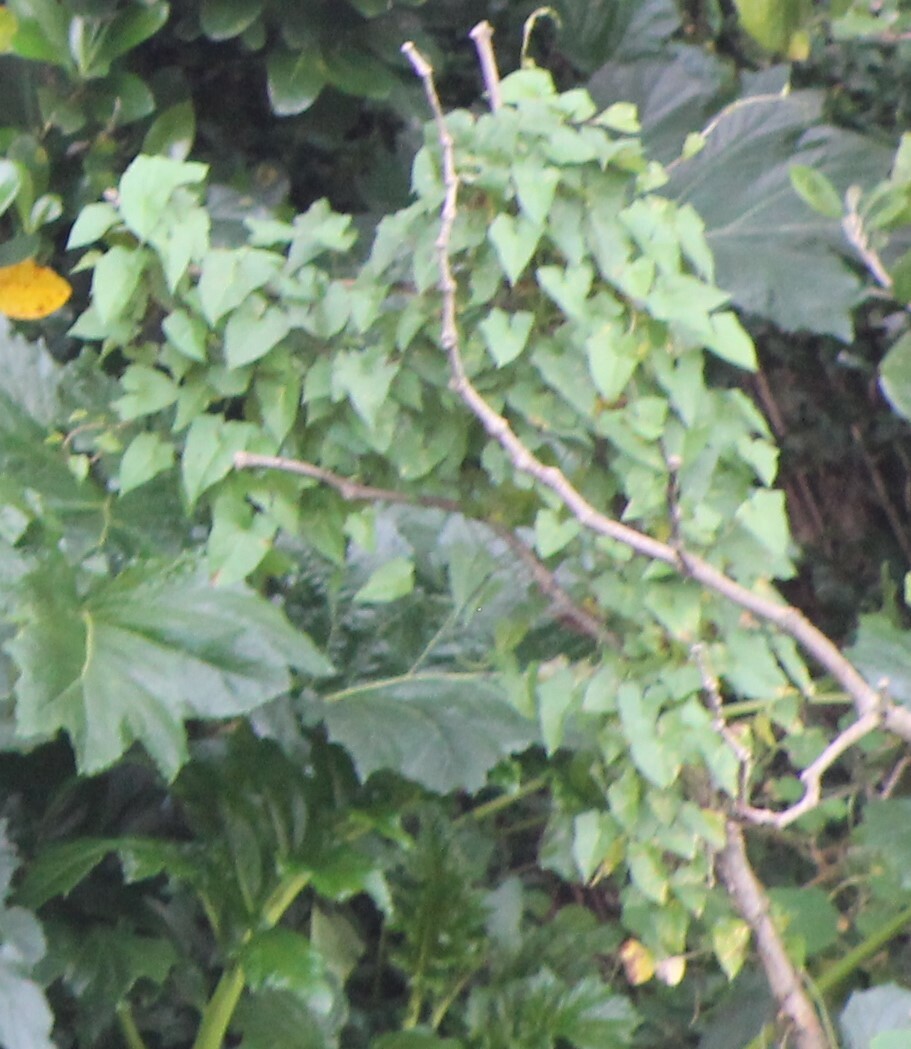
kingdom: Plantae
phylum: Tracheophyta
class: Magnoliopsida
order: Solanales
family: Convolvulaceae
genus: Calystegia
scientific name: Calystegia silvatica
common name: Large bindweed
